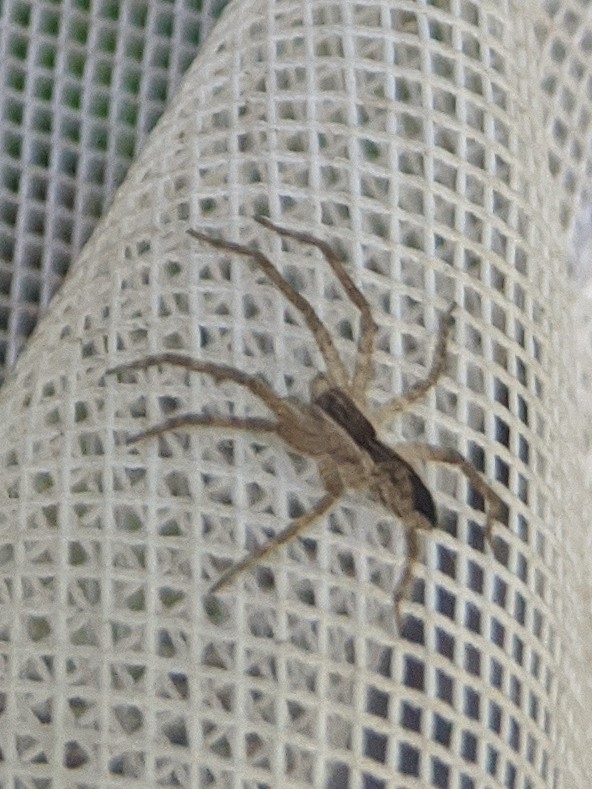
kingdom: Animalia
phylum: Arthropoda
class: Arachnida
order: Araneae
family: Pisauridae
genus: Pisaurina
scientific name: Pisaurina mira
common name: American nursery web spider
